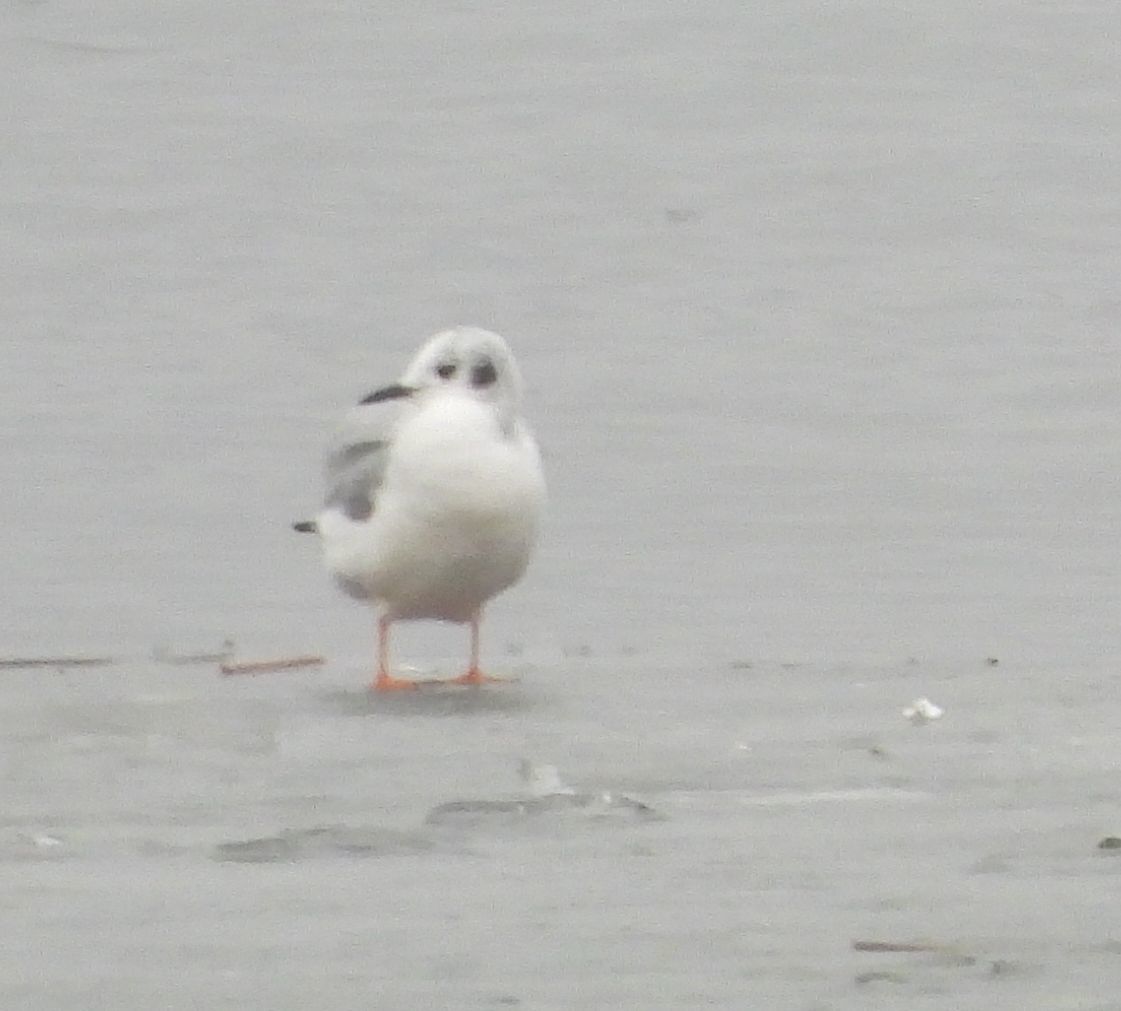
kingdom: Animalia
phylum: Chordata
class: Aves
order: Charadriiformes
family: Laridae
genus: Chroicocephalus
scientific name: Chroicocephalus philadelphia
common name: Bonaparte's gull
